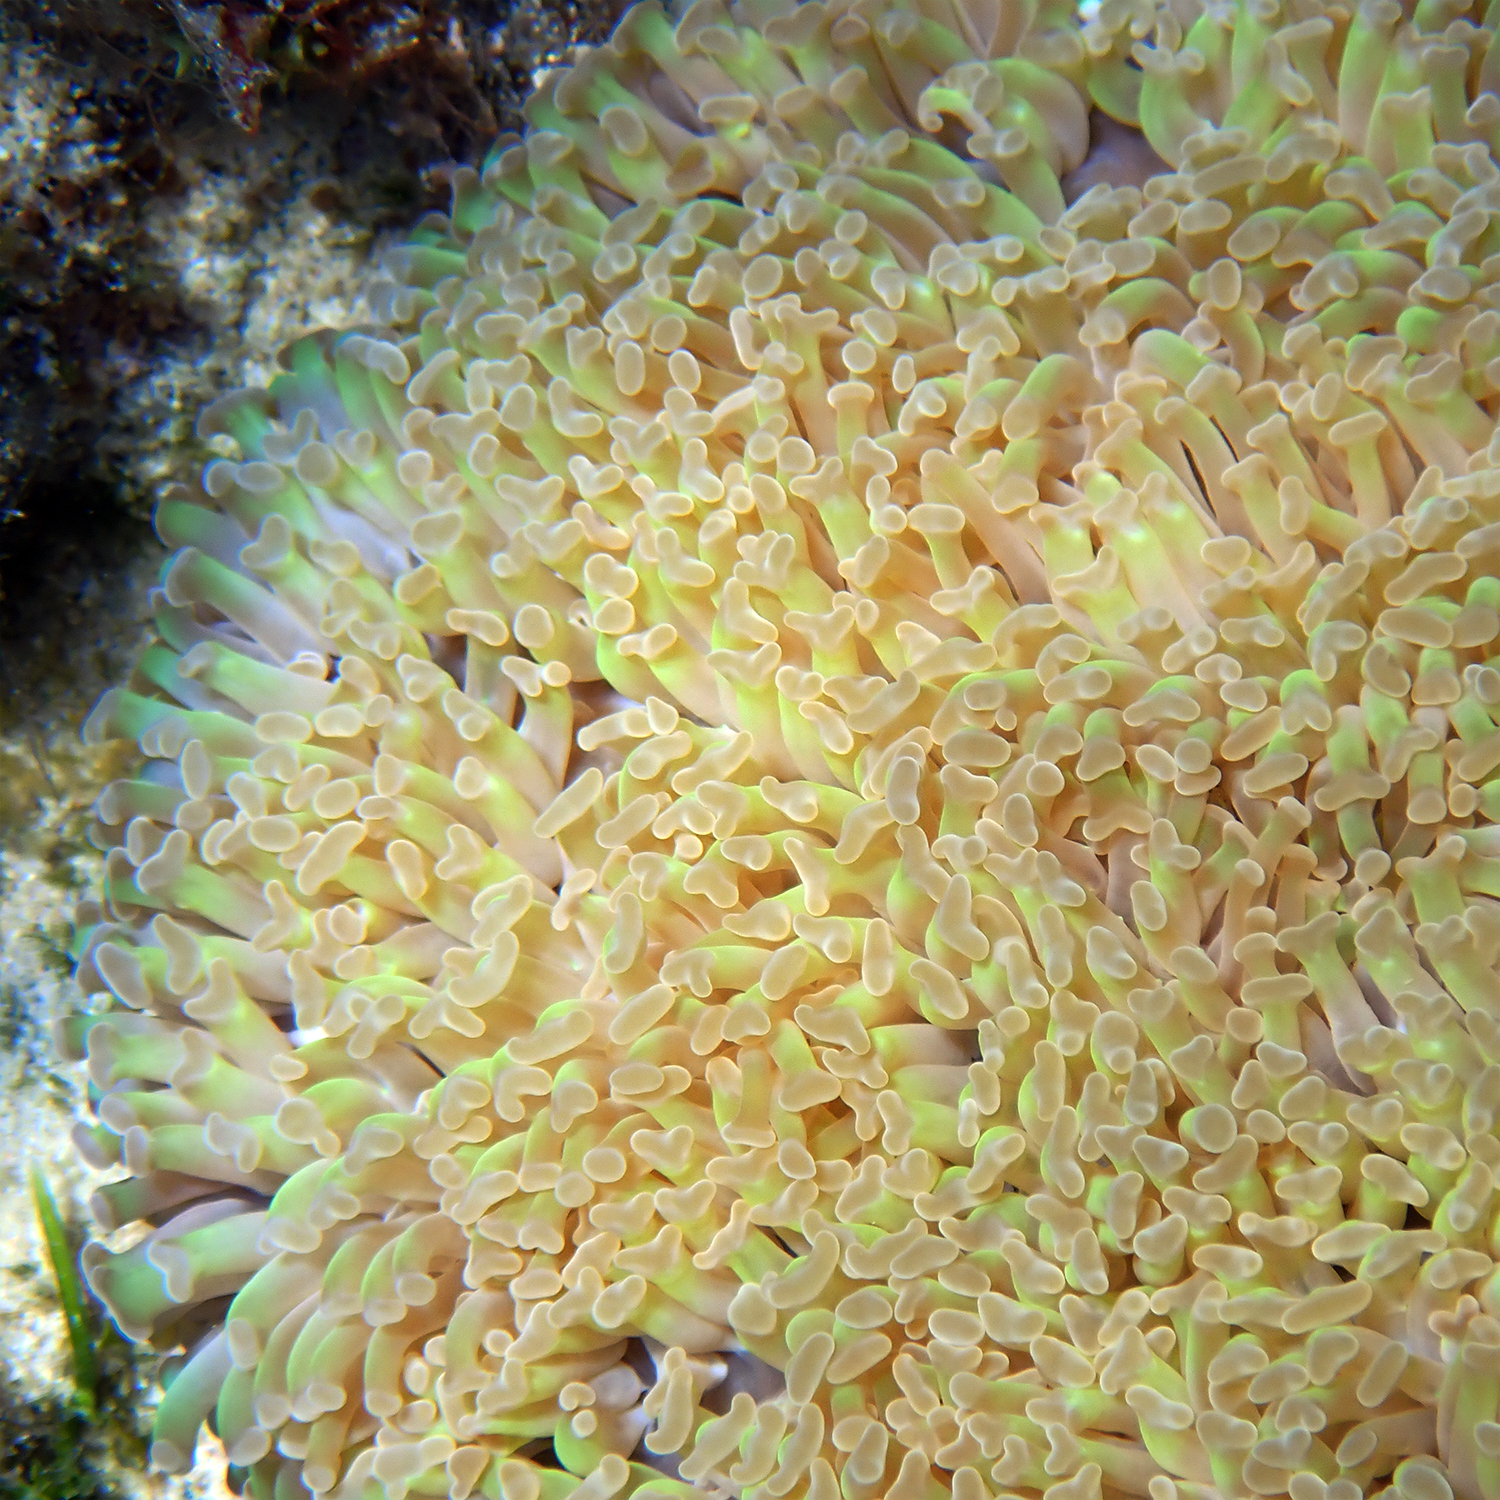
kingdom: Animalia
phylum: Cnidaria
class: Anthozoa
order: Scleractinia
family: Euphylliidae
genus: Fimbriaphyllia
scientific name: Fimbriaphyllia ancora
